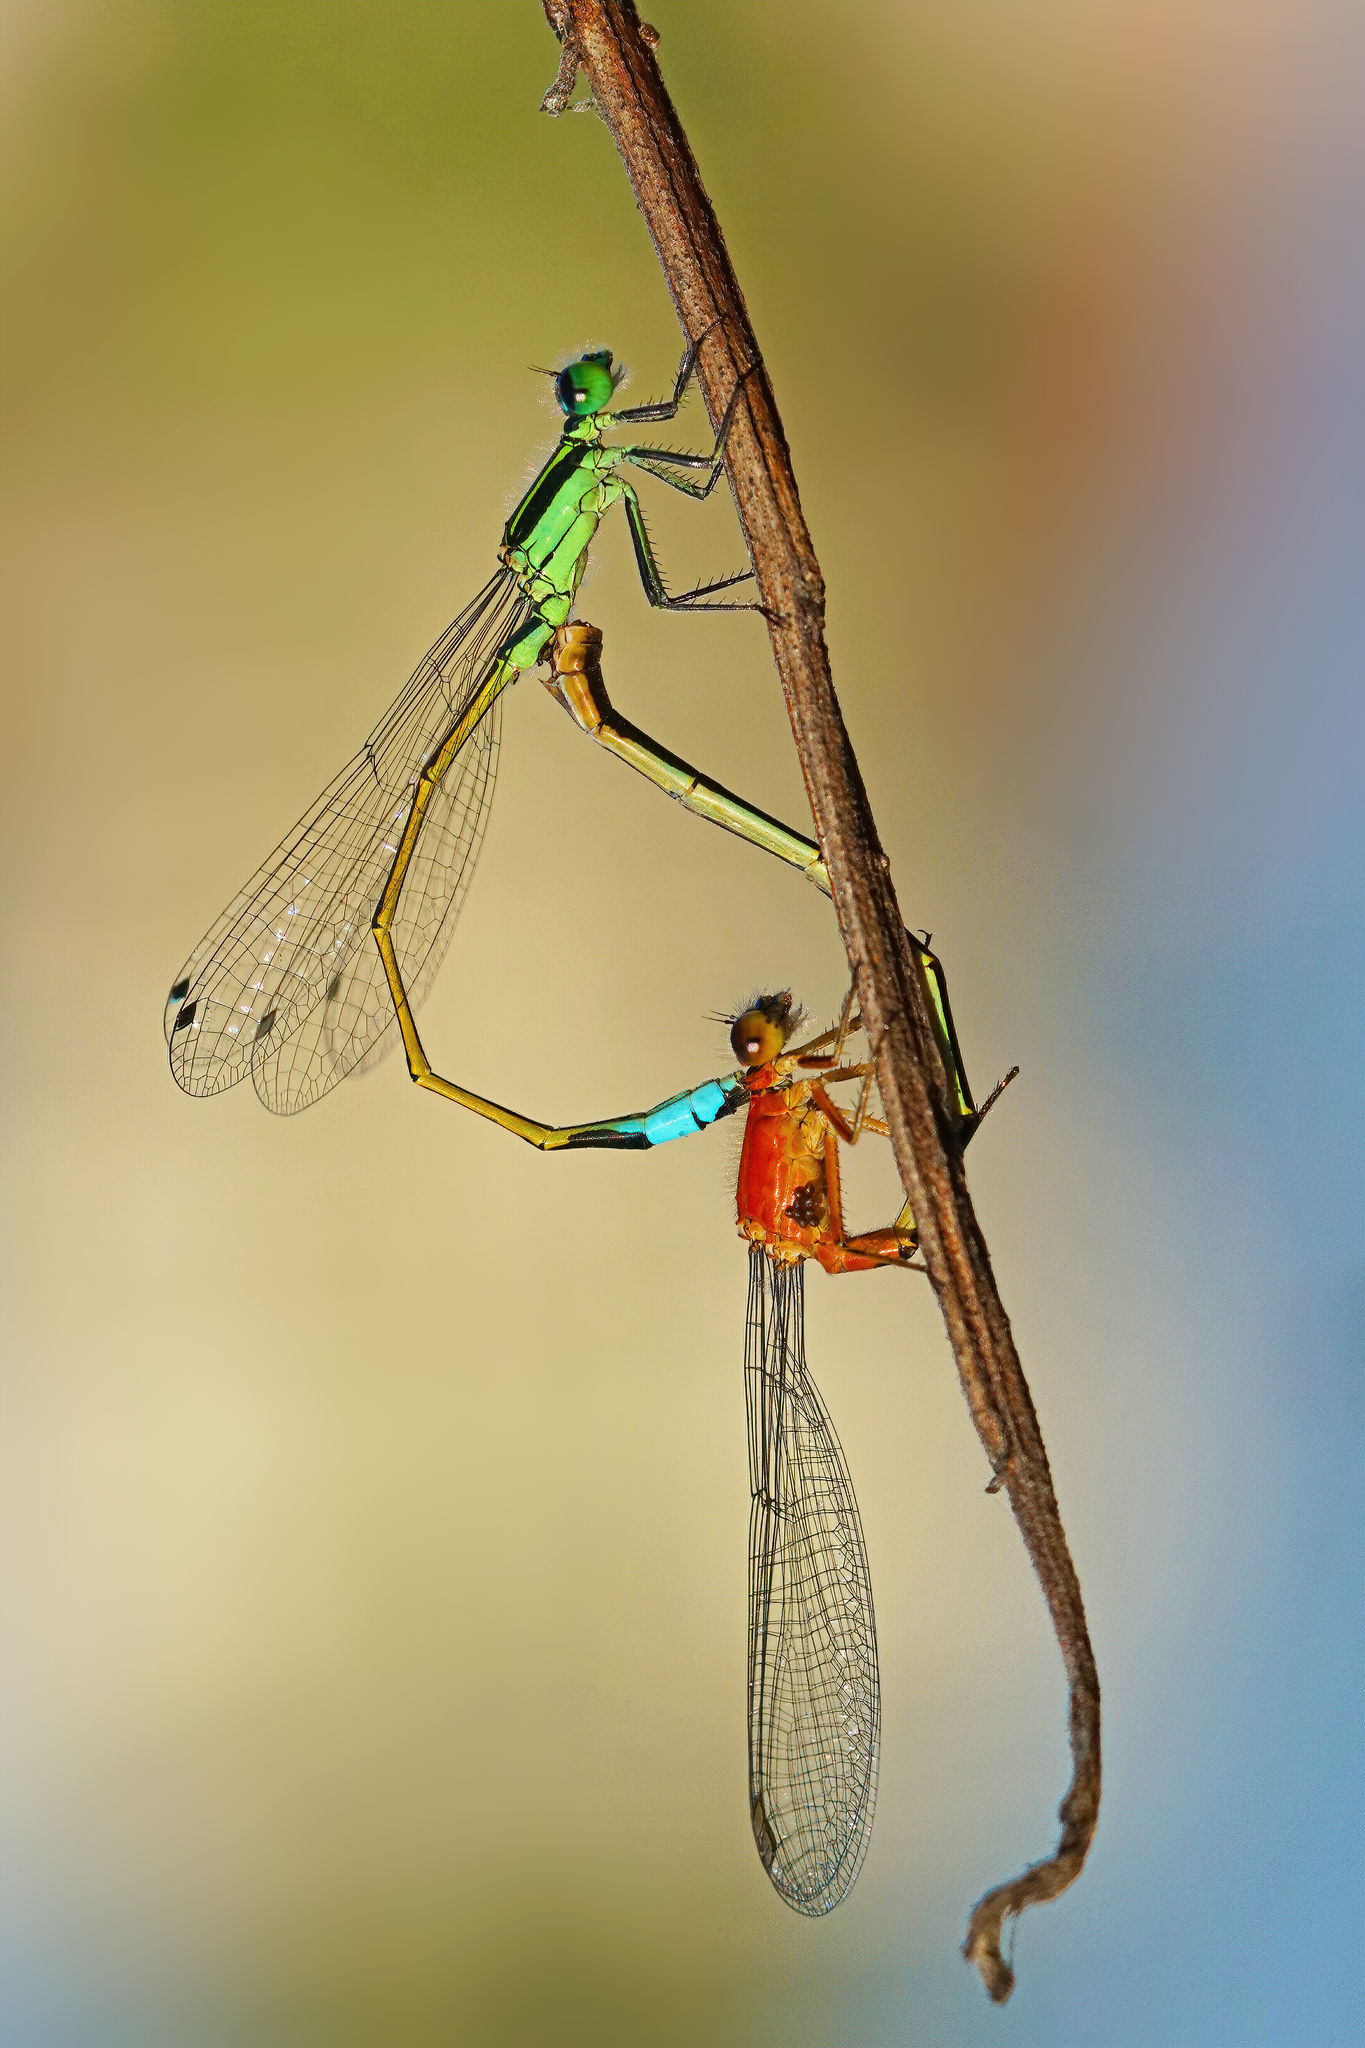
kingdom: Animalia
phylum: Arthropoda
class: Insecta
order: Odonata
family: Coenagrionidae
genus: Ischnura
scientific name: Ischnura ramburii
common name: Rambur's forktail
